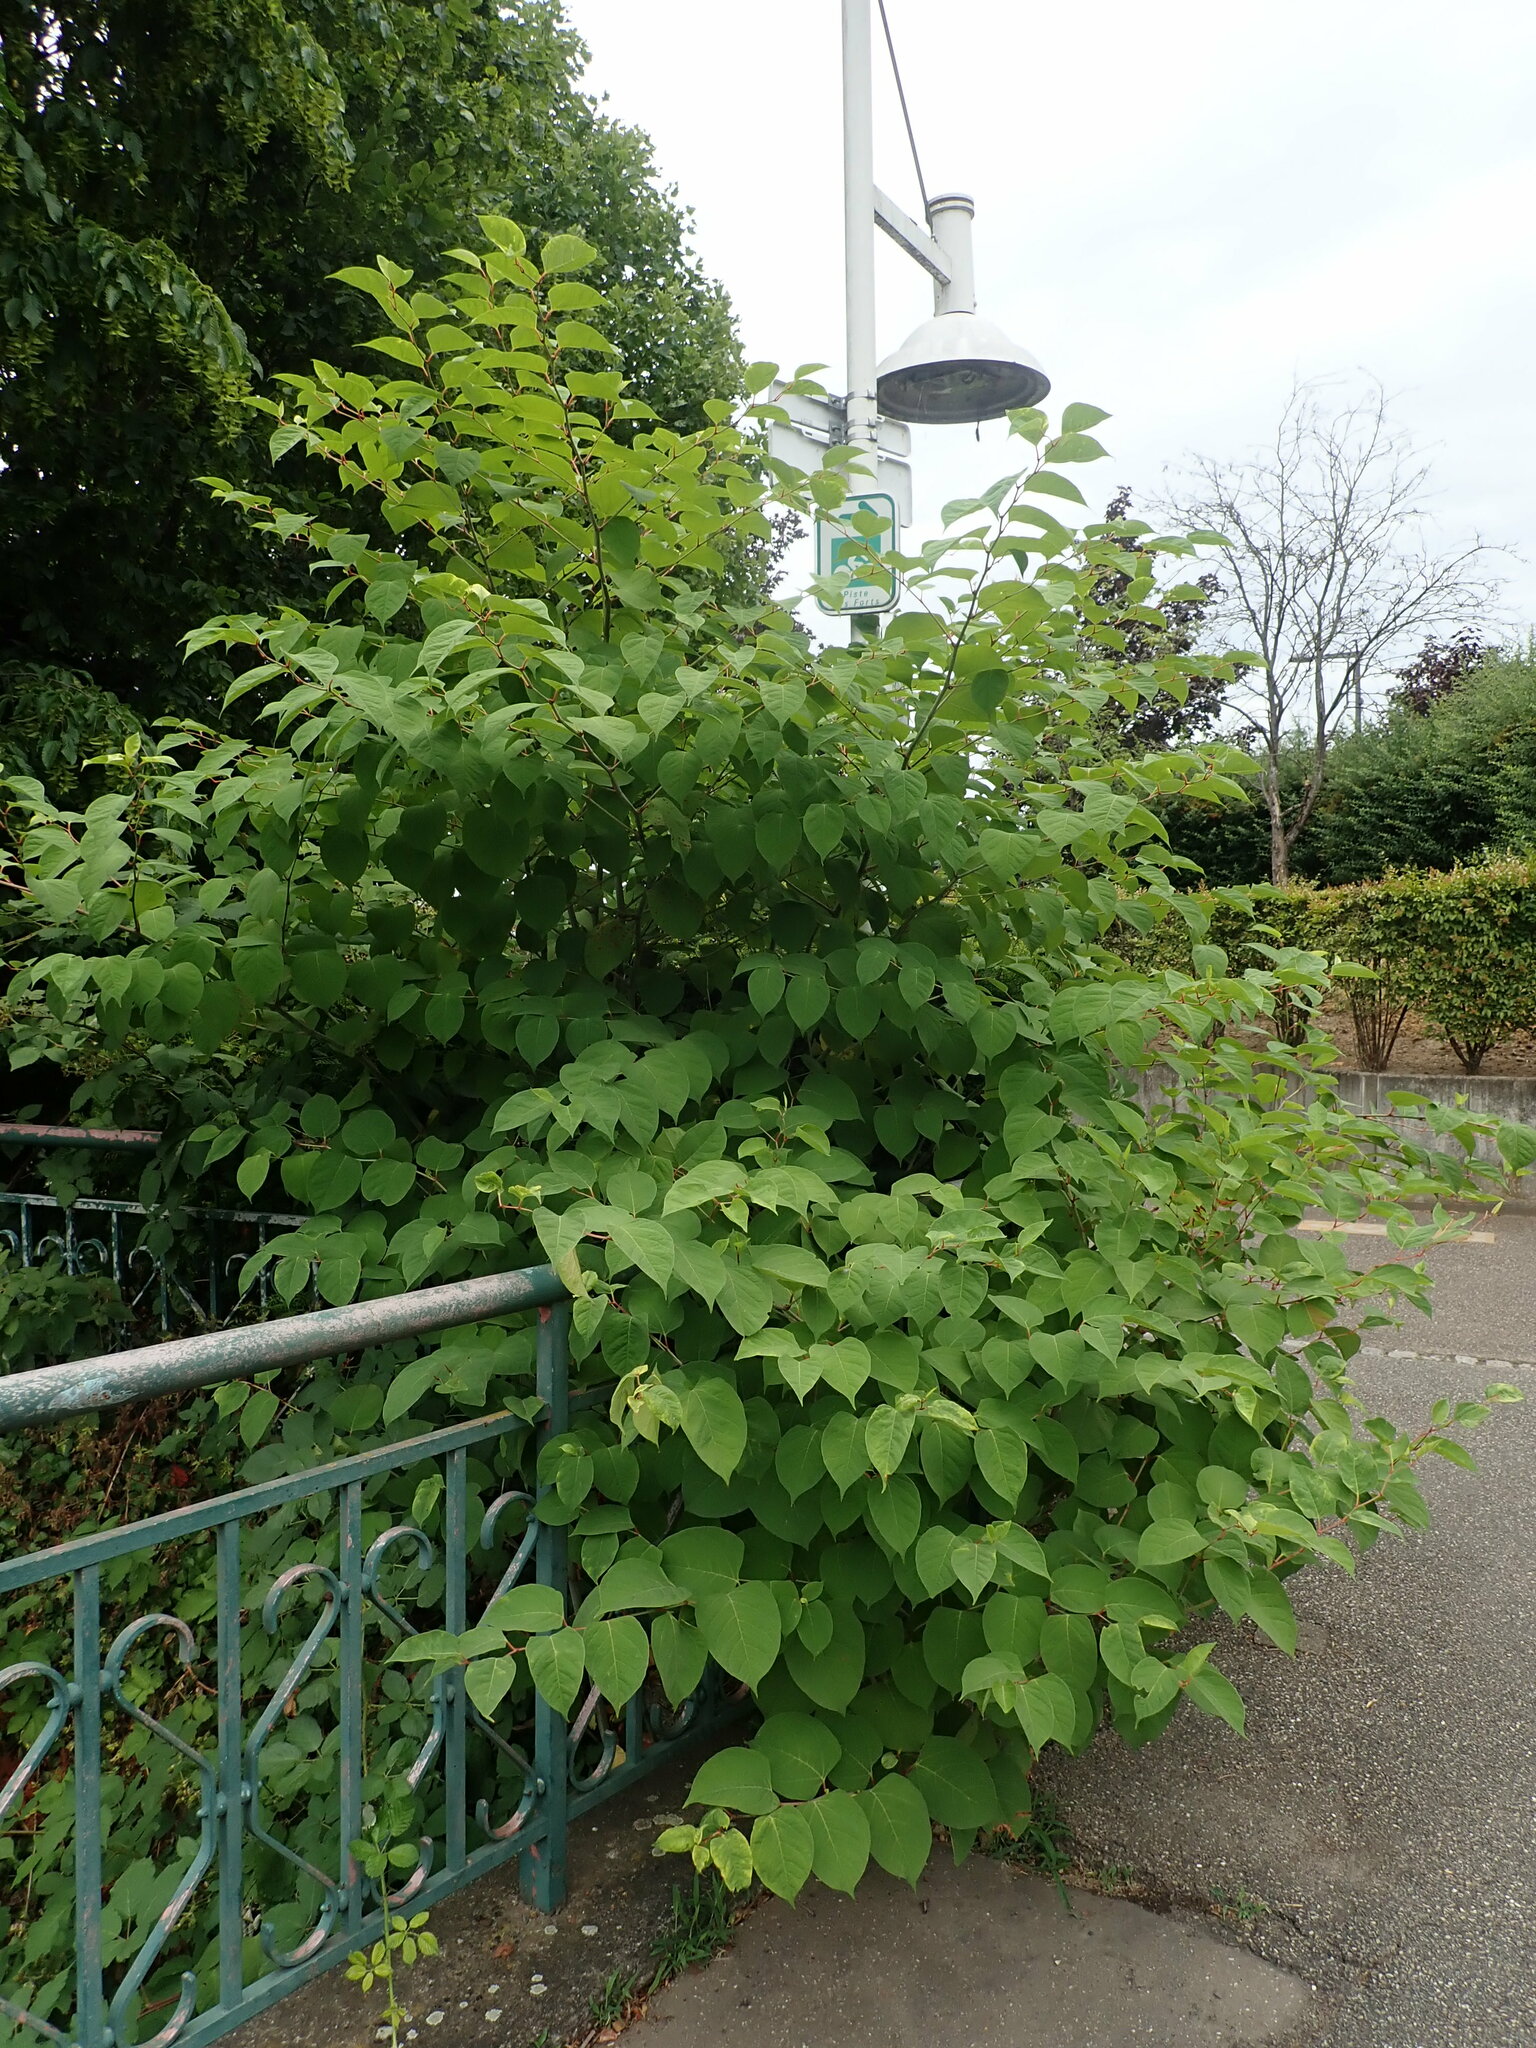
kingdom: Plantae
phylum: Tracheophyta
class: Magnoliopsida
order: Caryophyllales
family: Polygonaceae
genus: Reynoutria
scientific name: Reynoutria japonica
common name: Japanese knotweed
